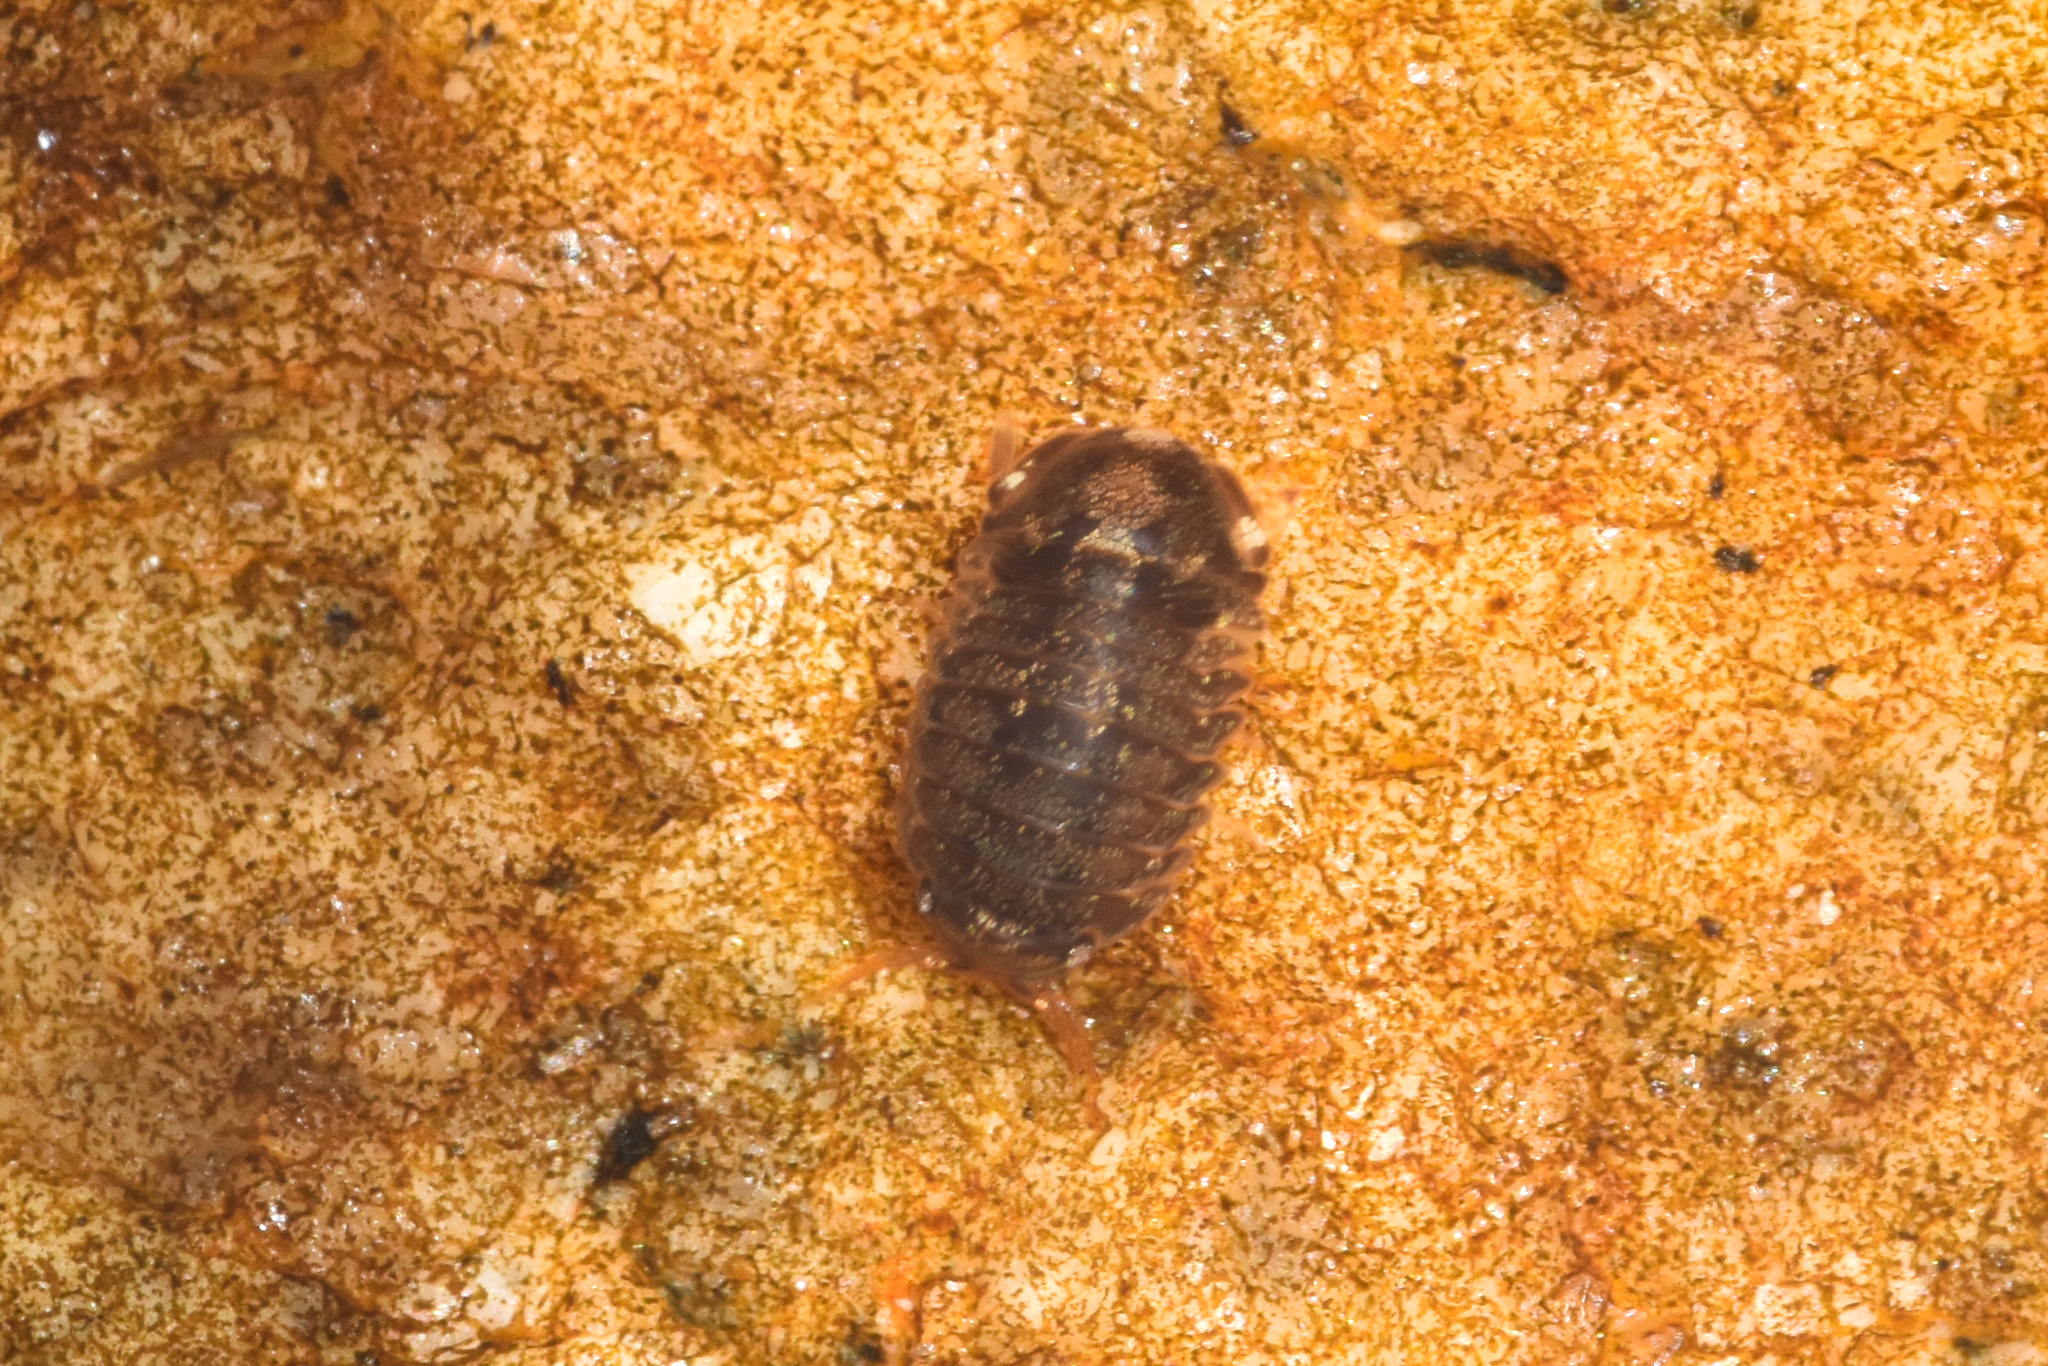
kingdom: Animalia
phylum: Arthropoda
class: Malacostraca
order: Isopoda
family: Sphaeromatidae
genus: Gnorimosphaeroma
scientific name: Gnorimosphaeroma oregonense
